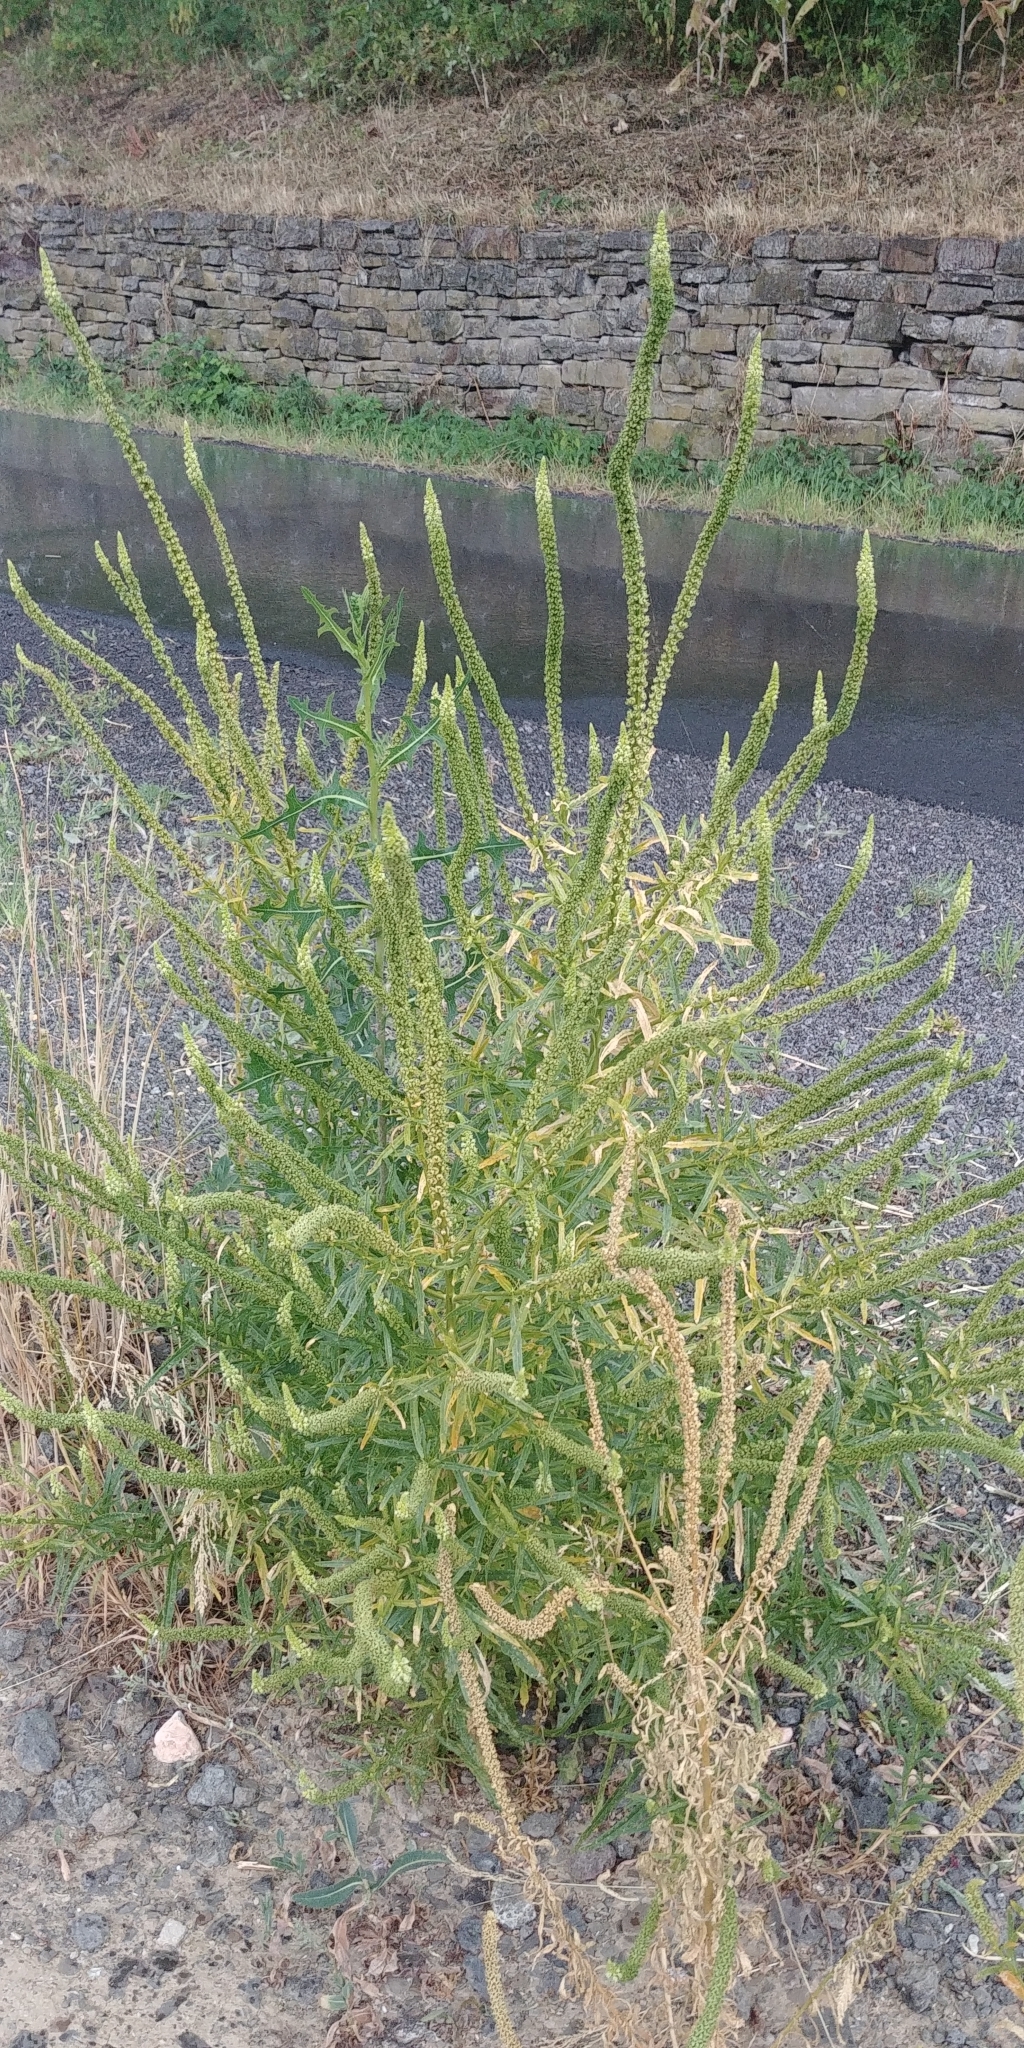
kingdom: Plantae
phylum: Tracheophyta
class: Magnoliopsida
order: Brassicales
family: Resedaceae
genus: Reseda
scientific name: Reseda luteola
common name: Weld
